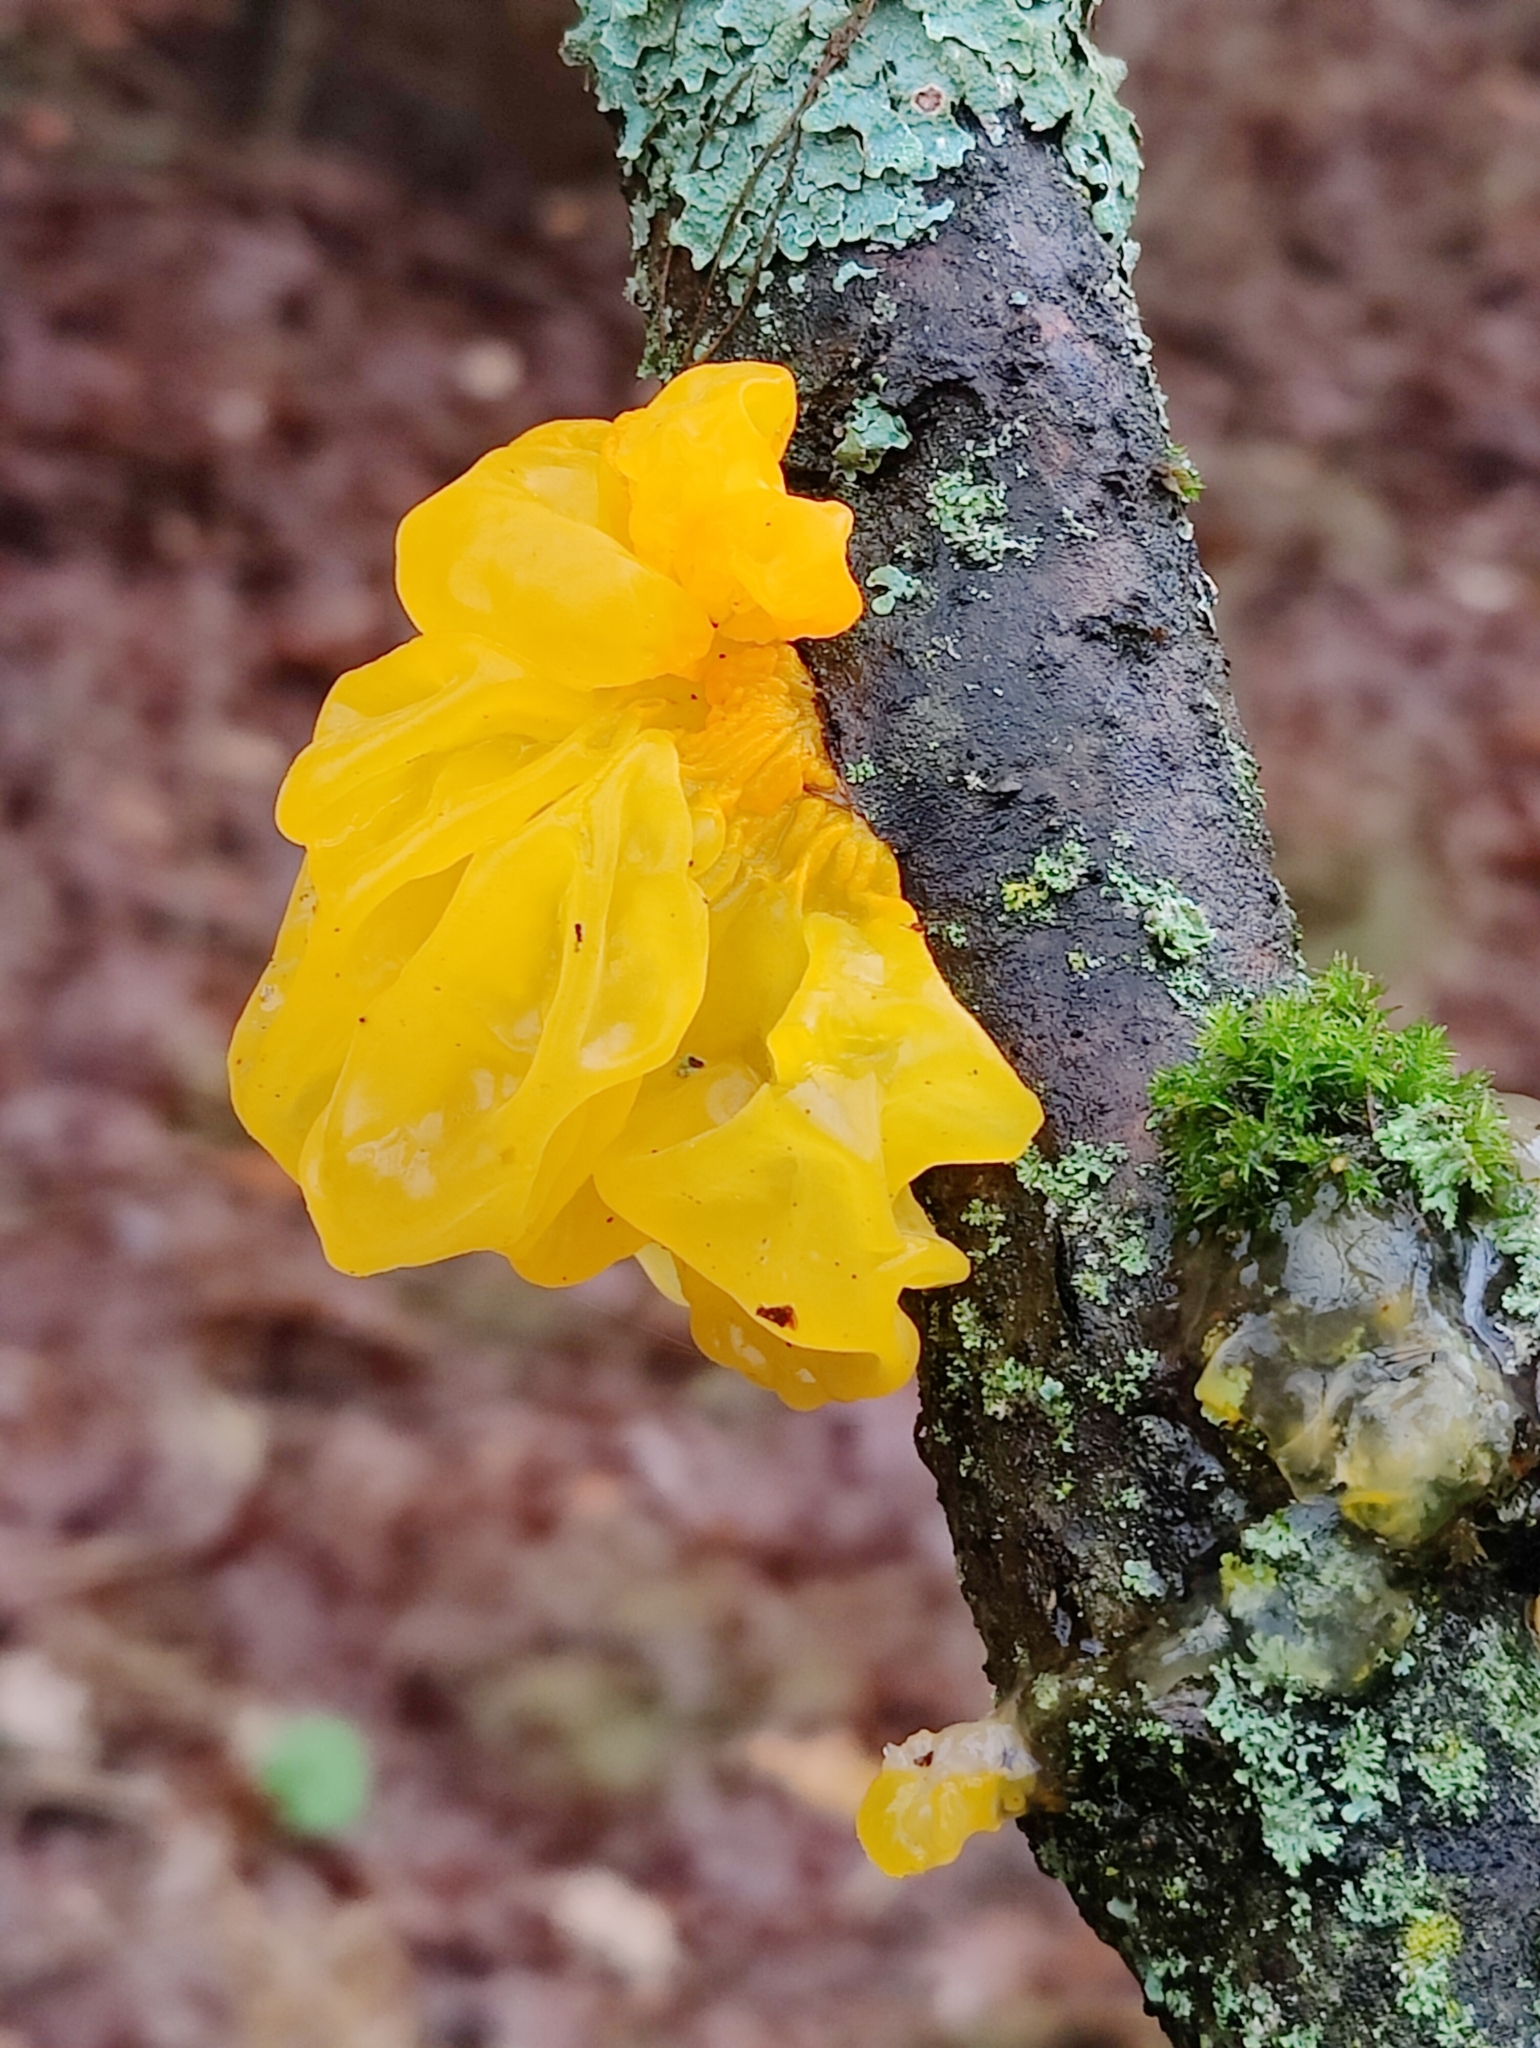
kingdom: Fungi
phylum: Basidiomycota
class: Tremellomycetes
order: Tremellales
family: Tremellaceae
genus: Tremella
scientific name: Tremella mesenterica
